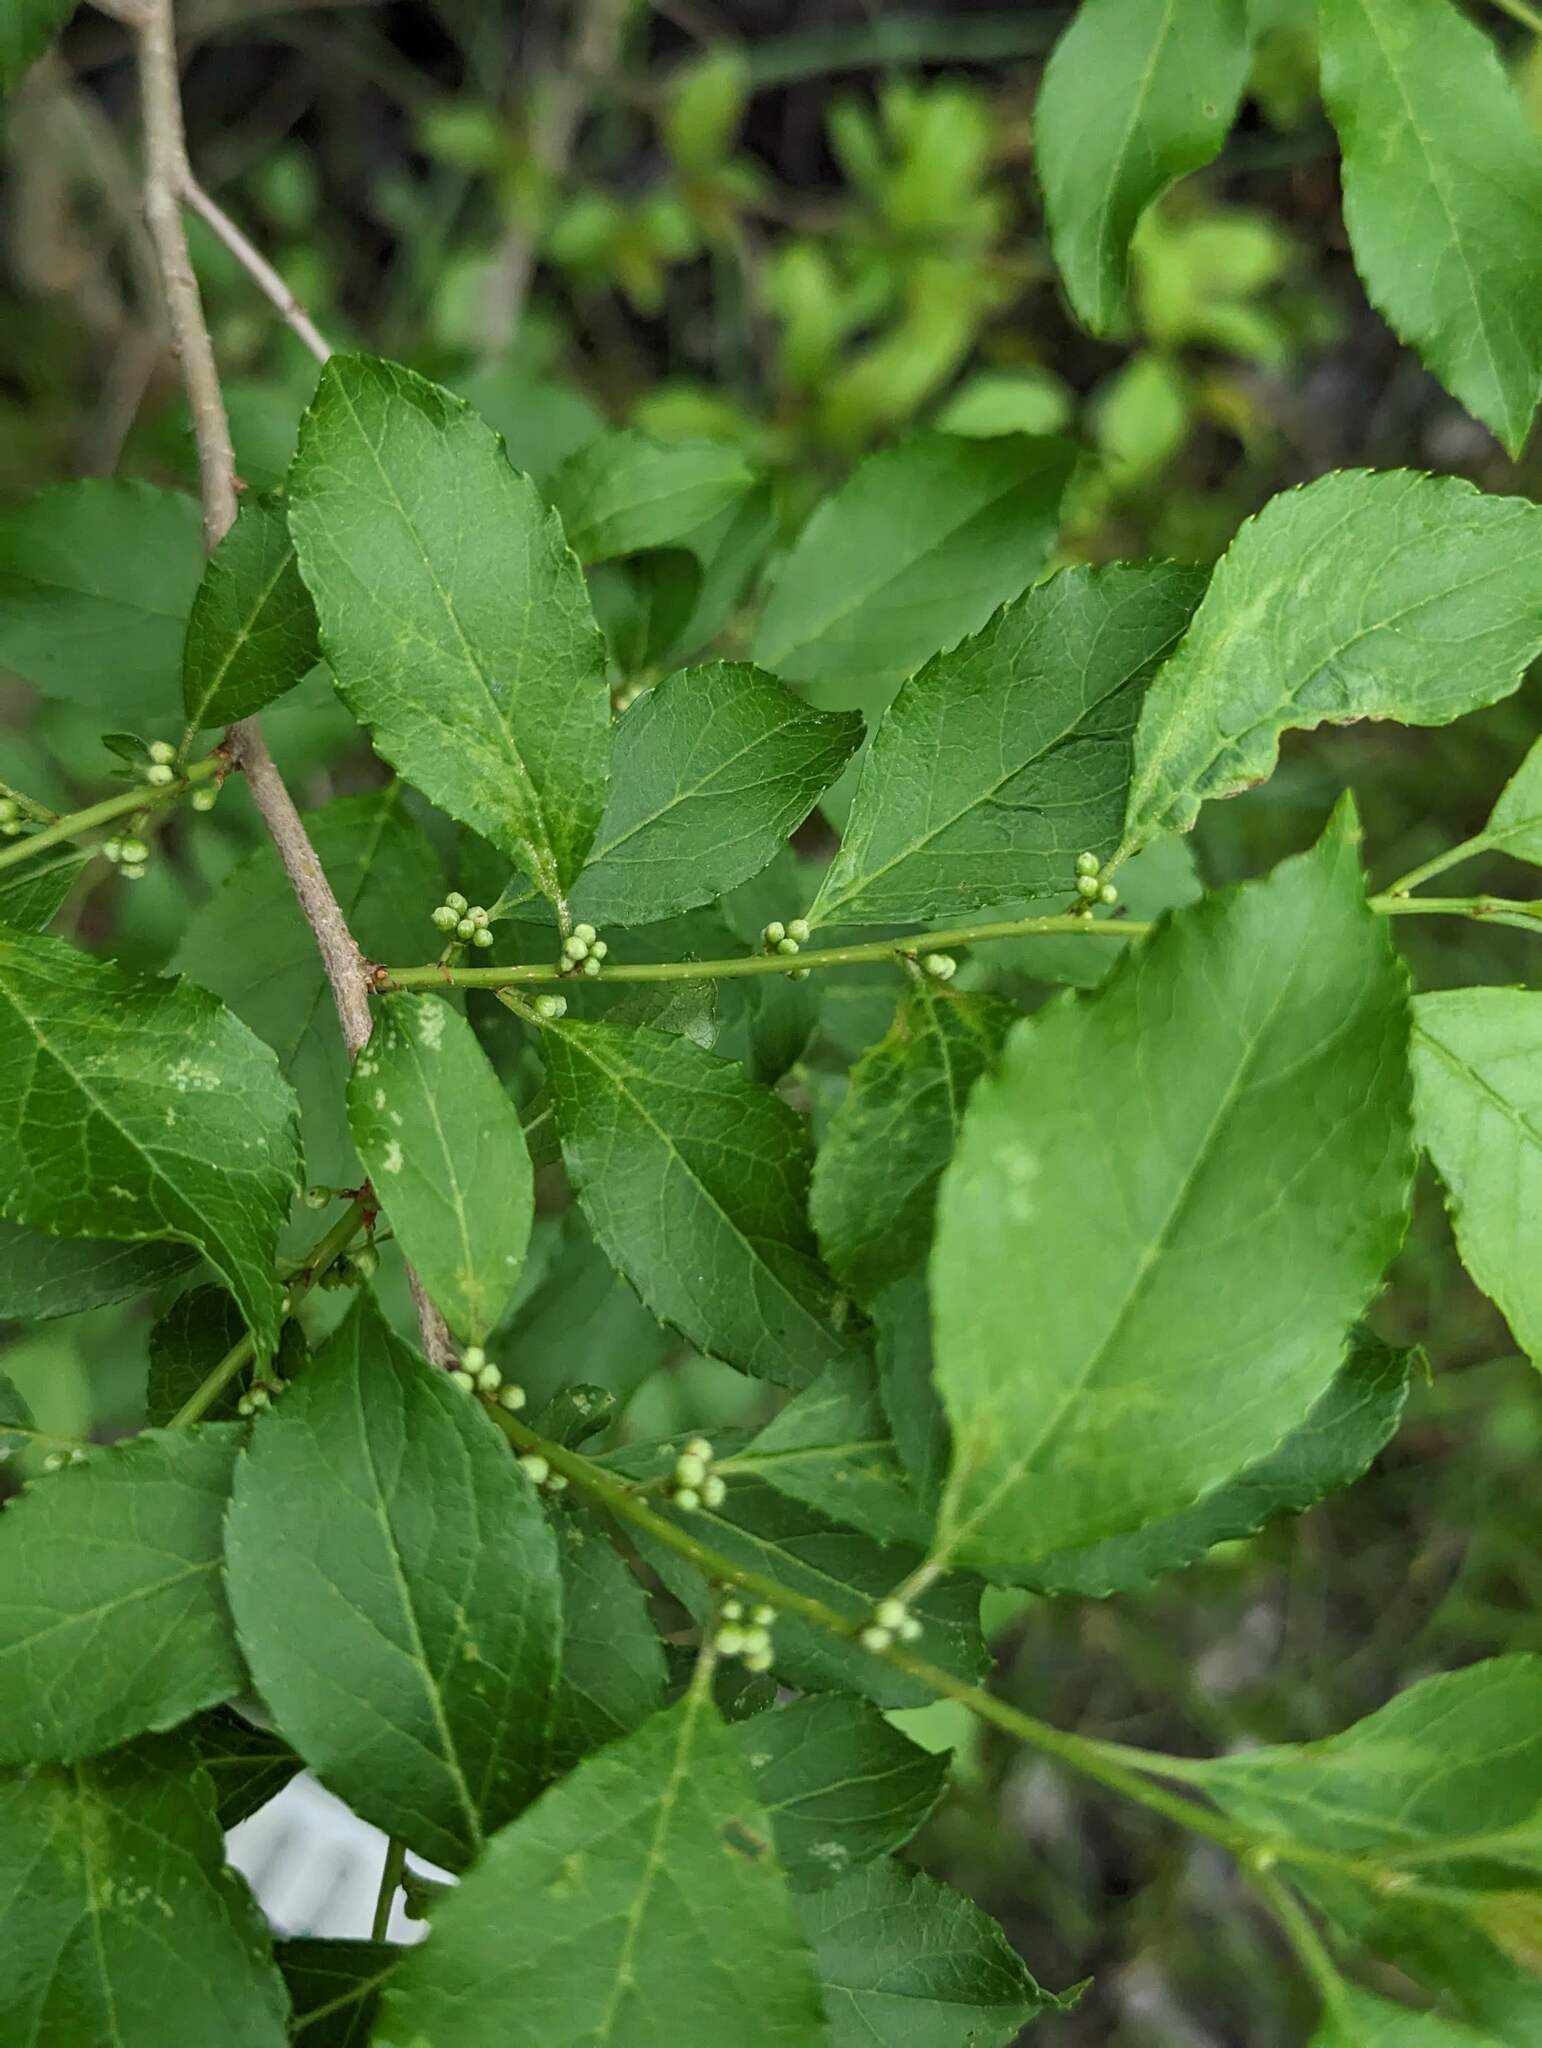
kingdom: Plantae
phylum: Tracheophyta
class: Magnoliopsida
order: Aquifoliales
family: Aquifoliaceae
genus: Ilex
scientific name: Ilex verticillata
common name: Virginia winterberry
